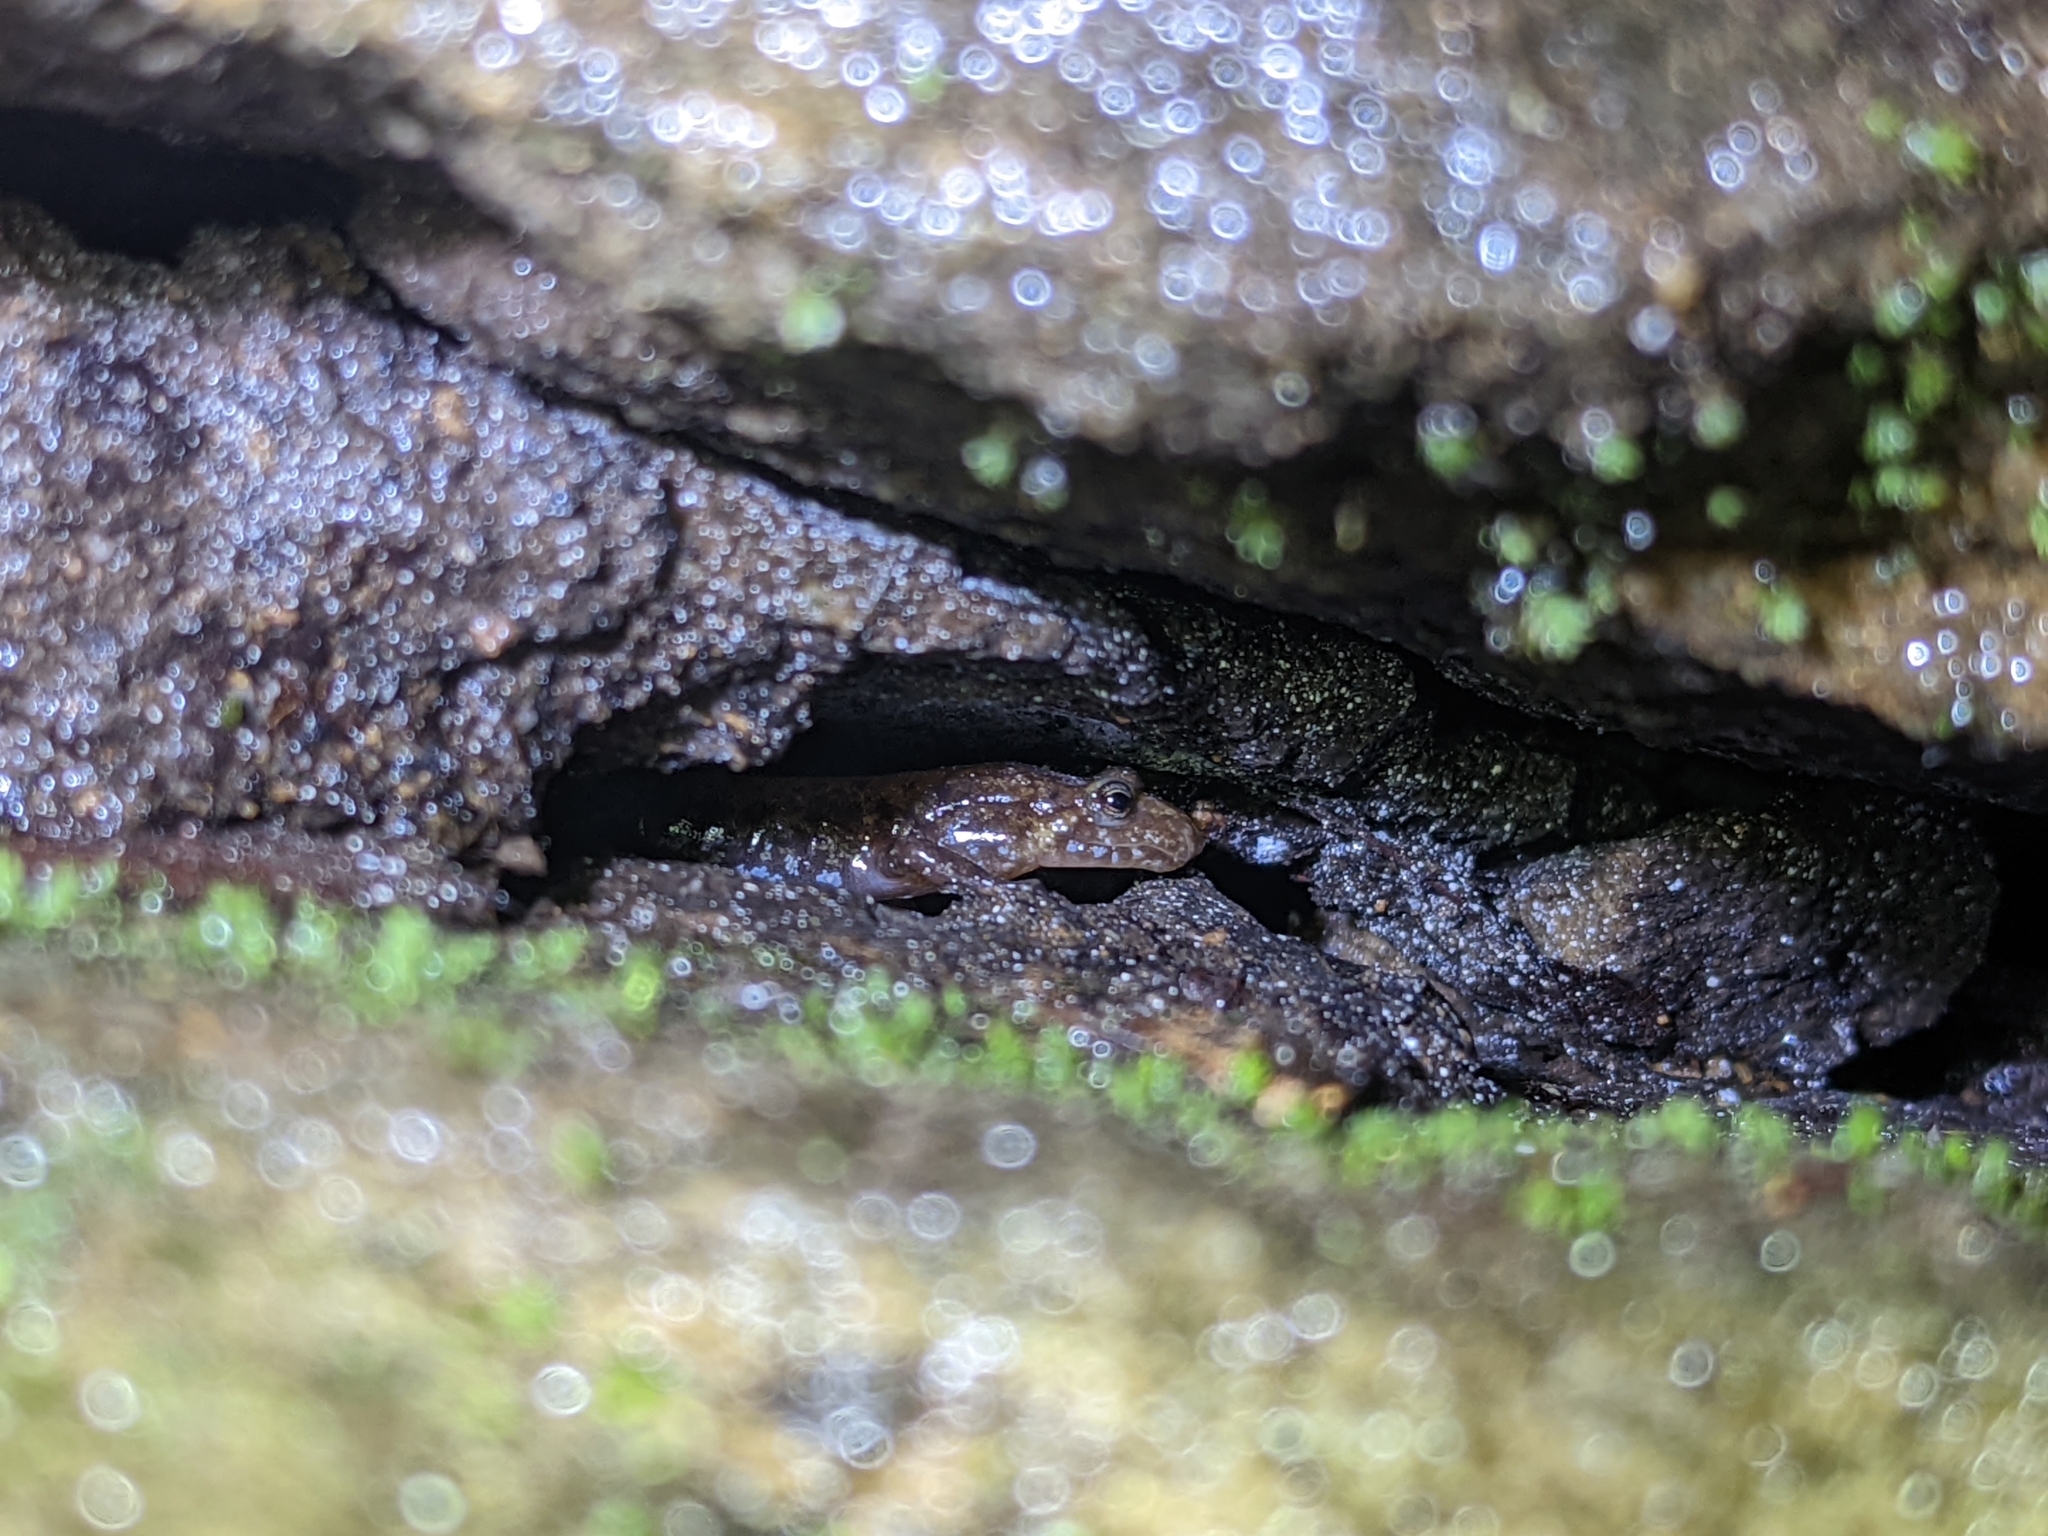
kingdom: Animalia
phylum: Chordata
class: Amphibia
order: Caudata
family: Plethodontidae
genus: Desmognathus
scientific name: Desmognathus ochrophaeus
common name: Allegheny mountain dusky salamander
